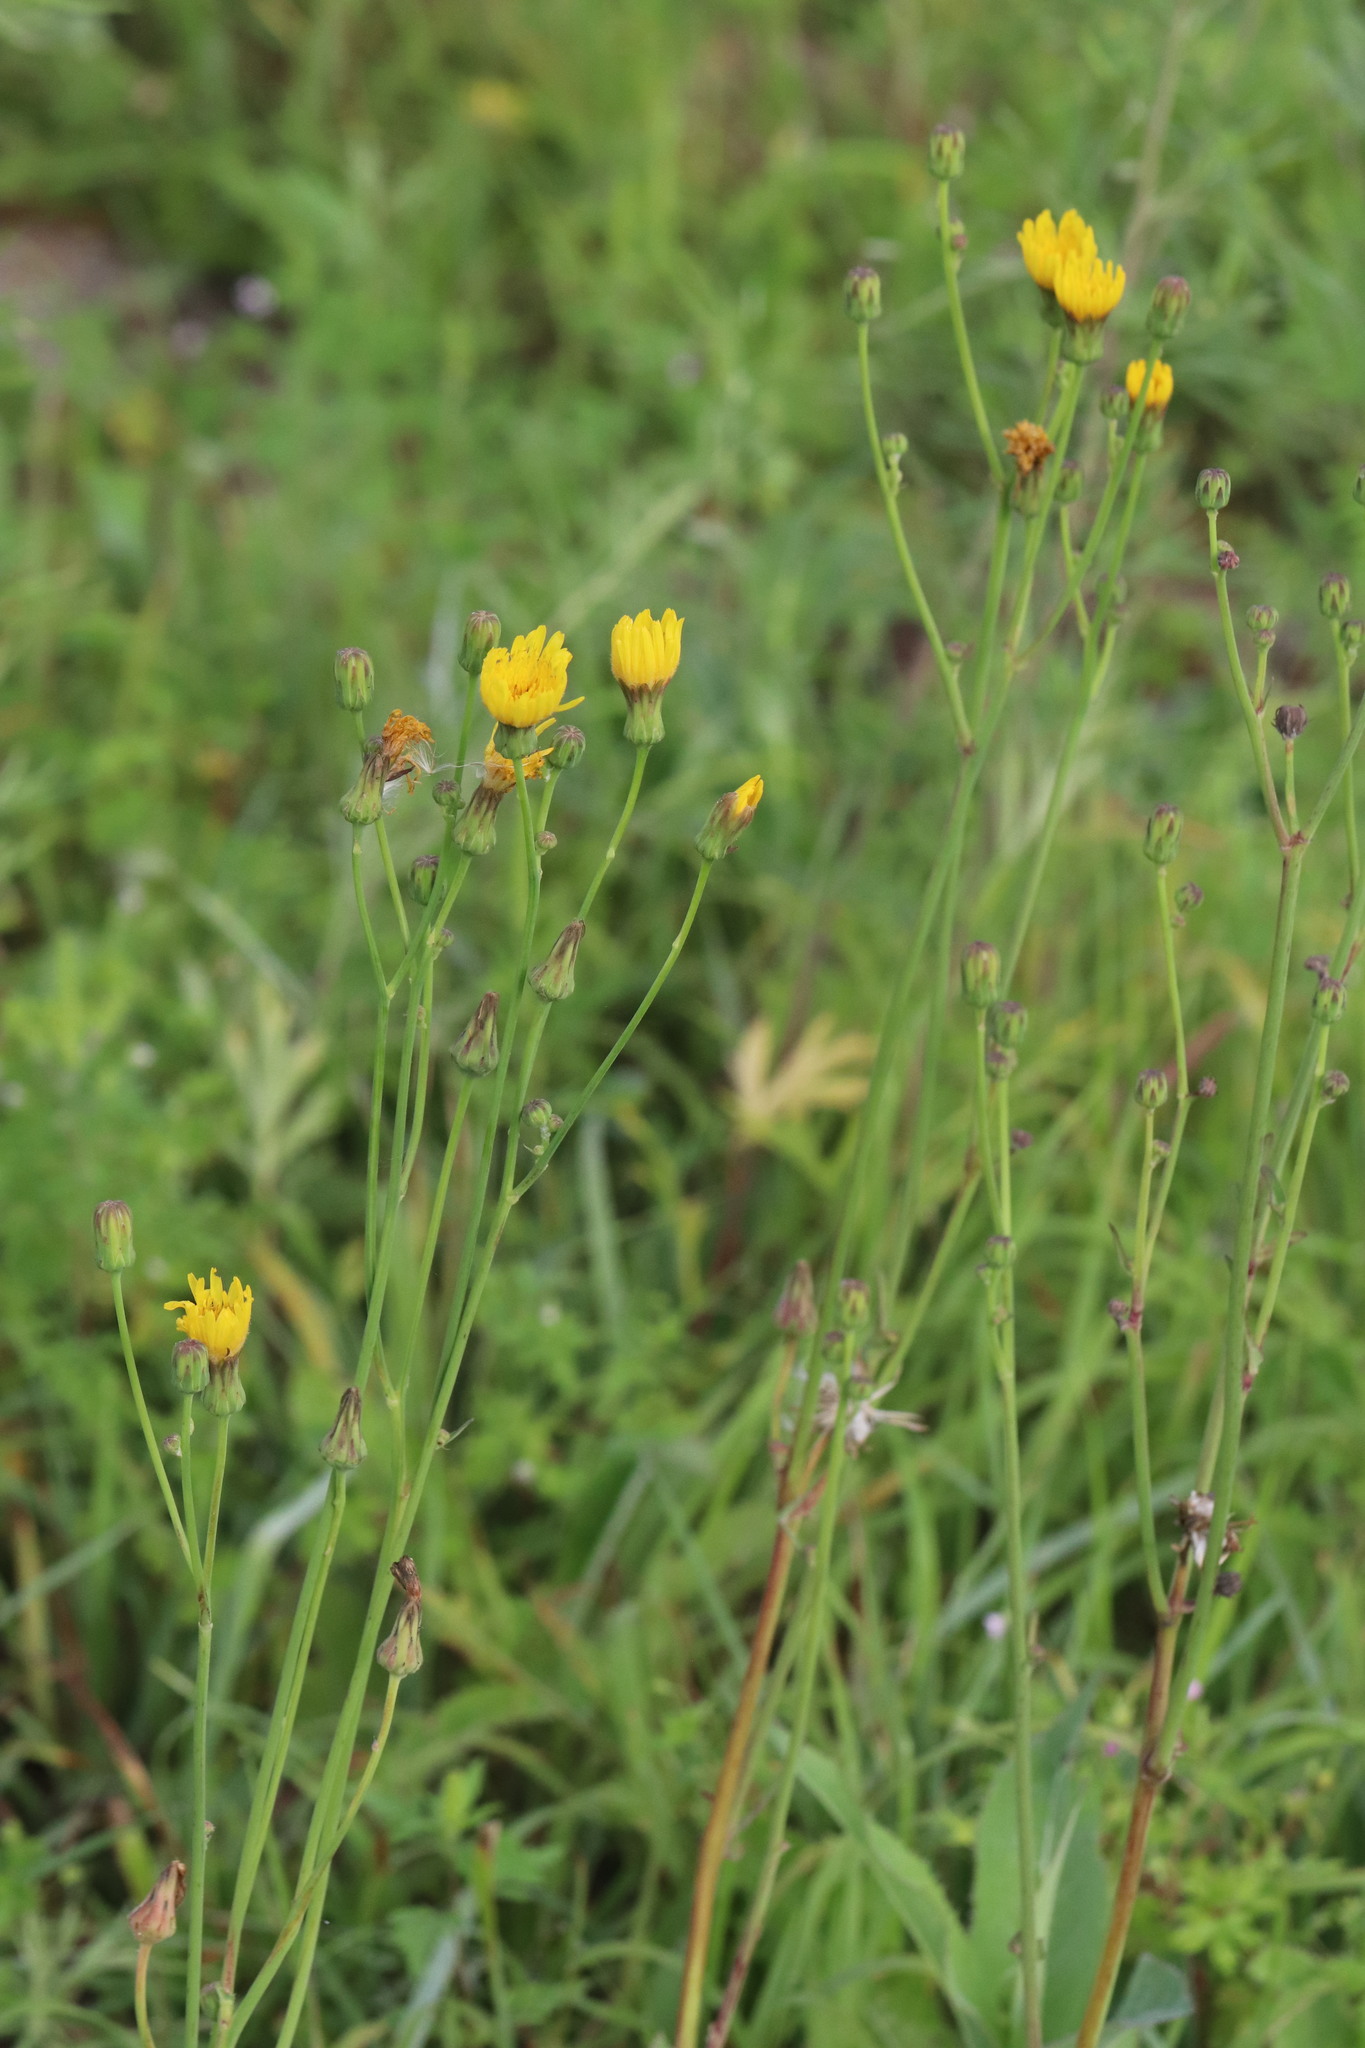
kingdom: Plantae
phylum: Tracheophyta
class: Magnoliopsida
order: Asterales
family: Asteraceae
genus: Sonchus
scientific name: Sonchus arvensis
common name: Perennial sow-thistle
